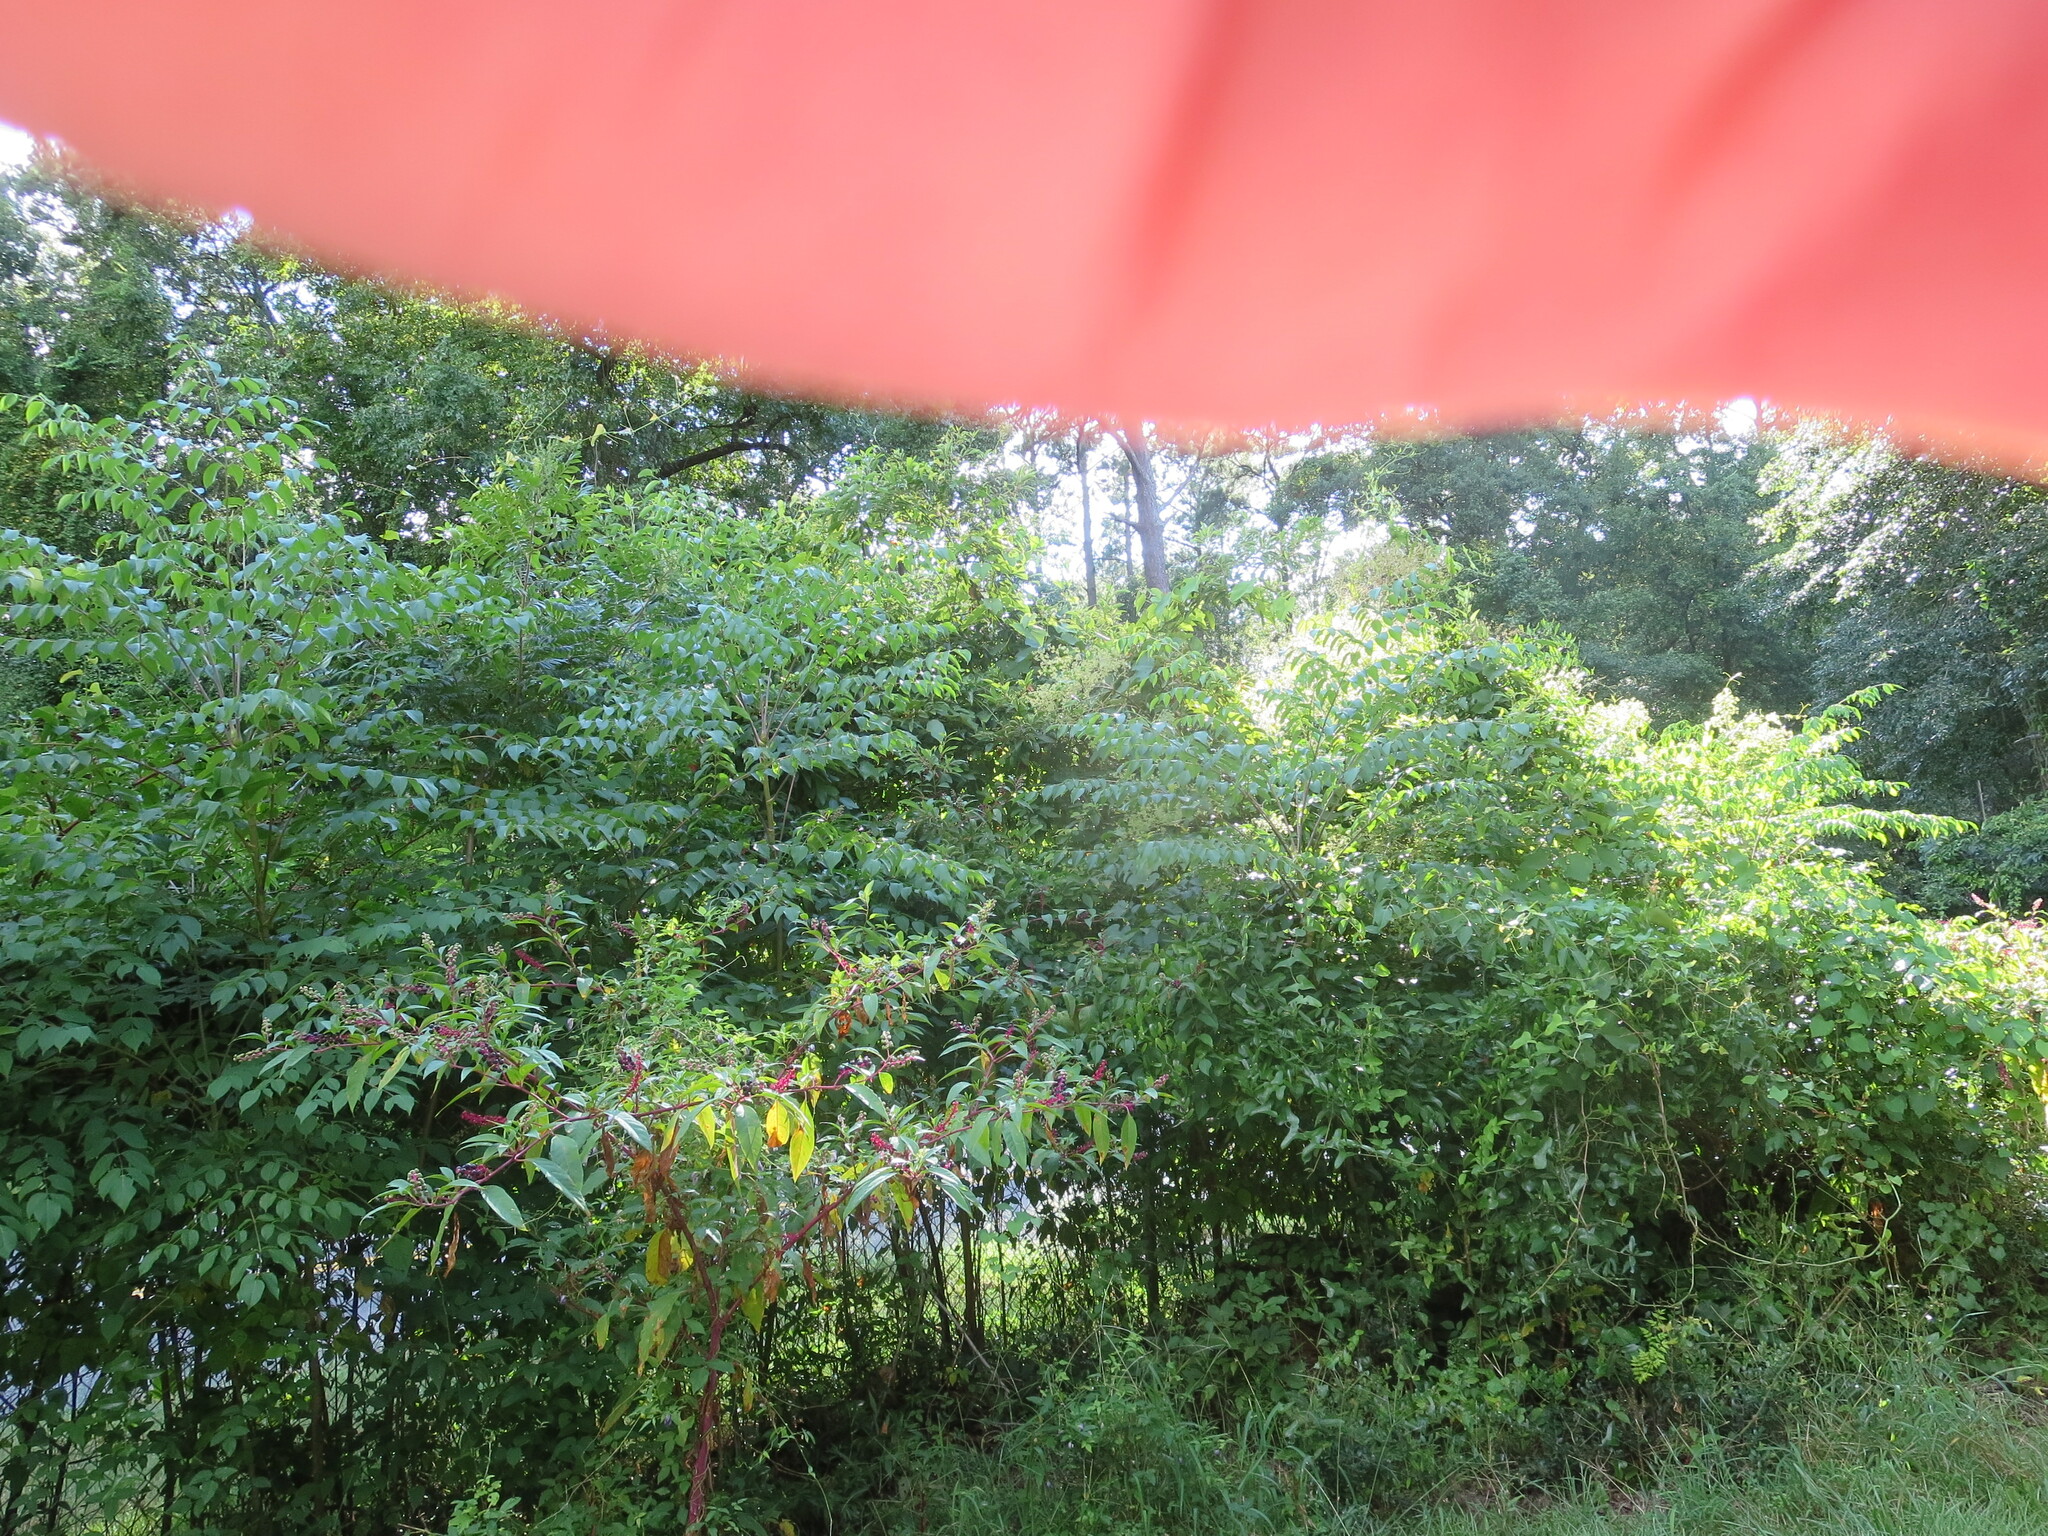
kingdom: Plantae
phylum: Tracheophyta
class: Magnoliopsida
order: Apiales
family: Araliaceae
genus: Aralia
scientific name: Aralia spinosa
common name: Hercules'-club
